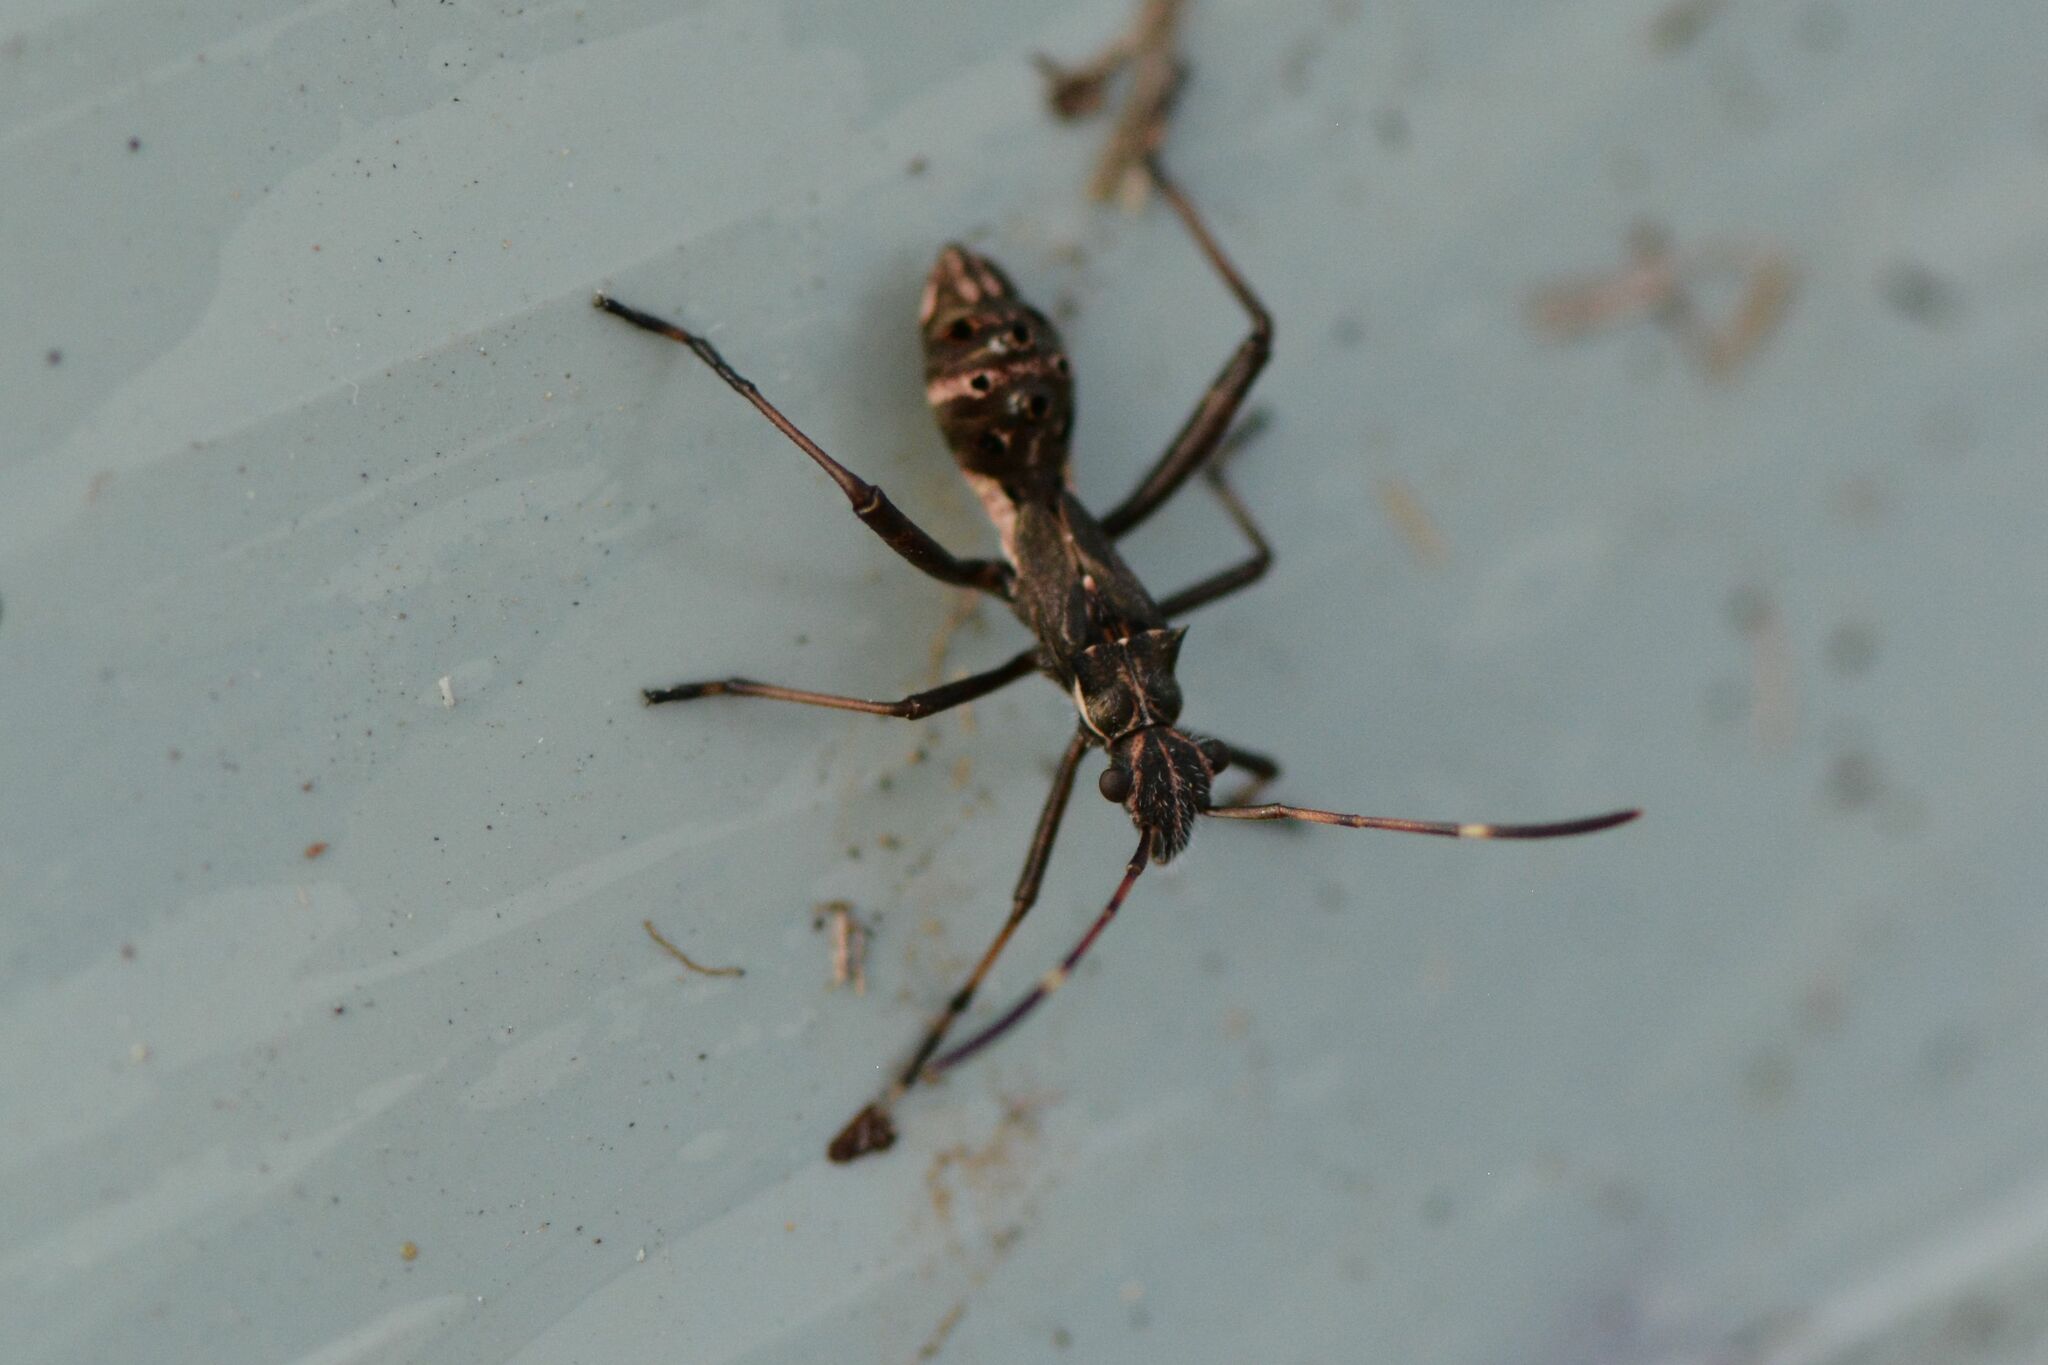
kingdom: Animalia
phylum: Arthropoda
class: Insecta
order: Hemiptera
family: Alydidae
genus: Camptopus
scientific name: Camptopus lateralis
